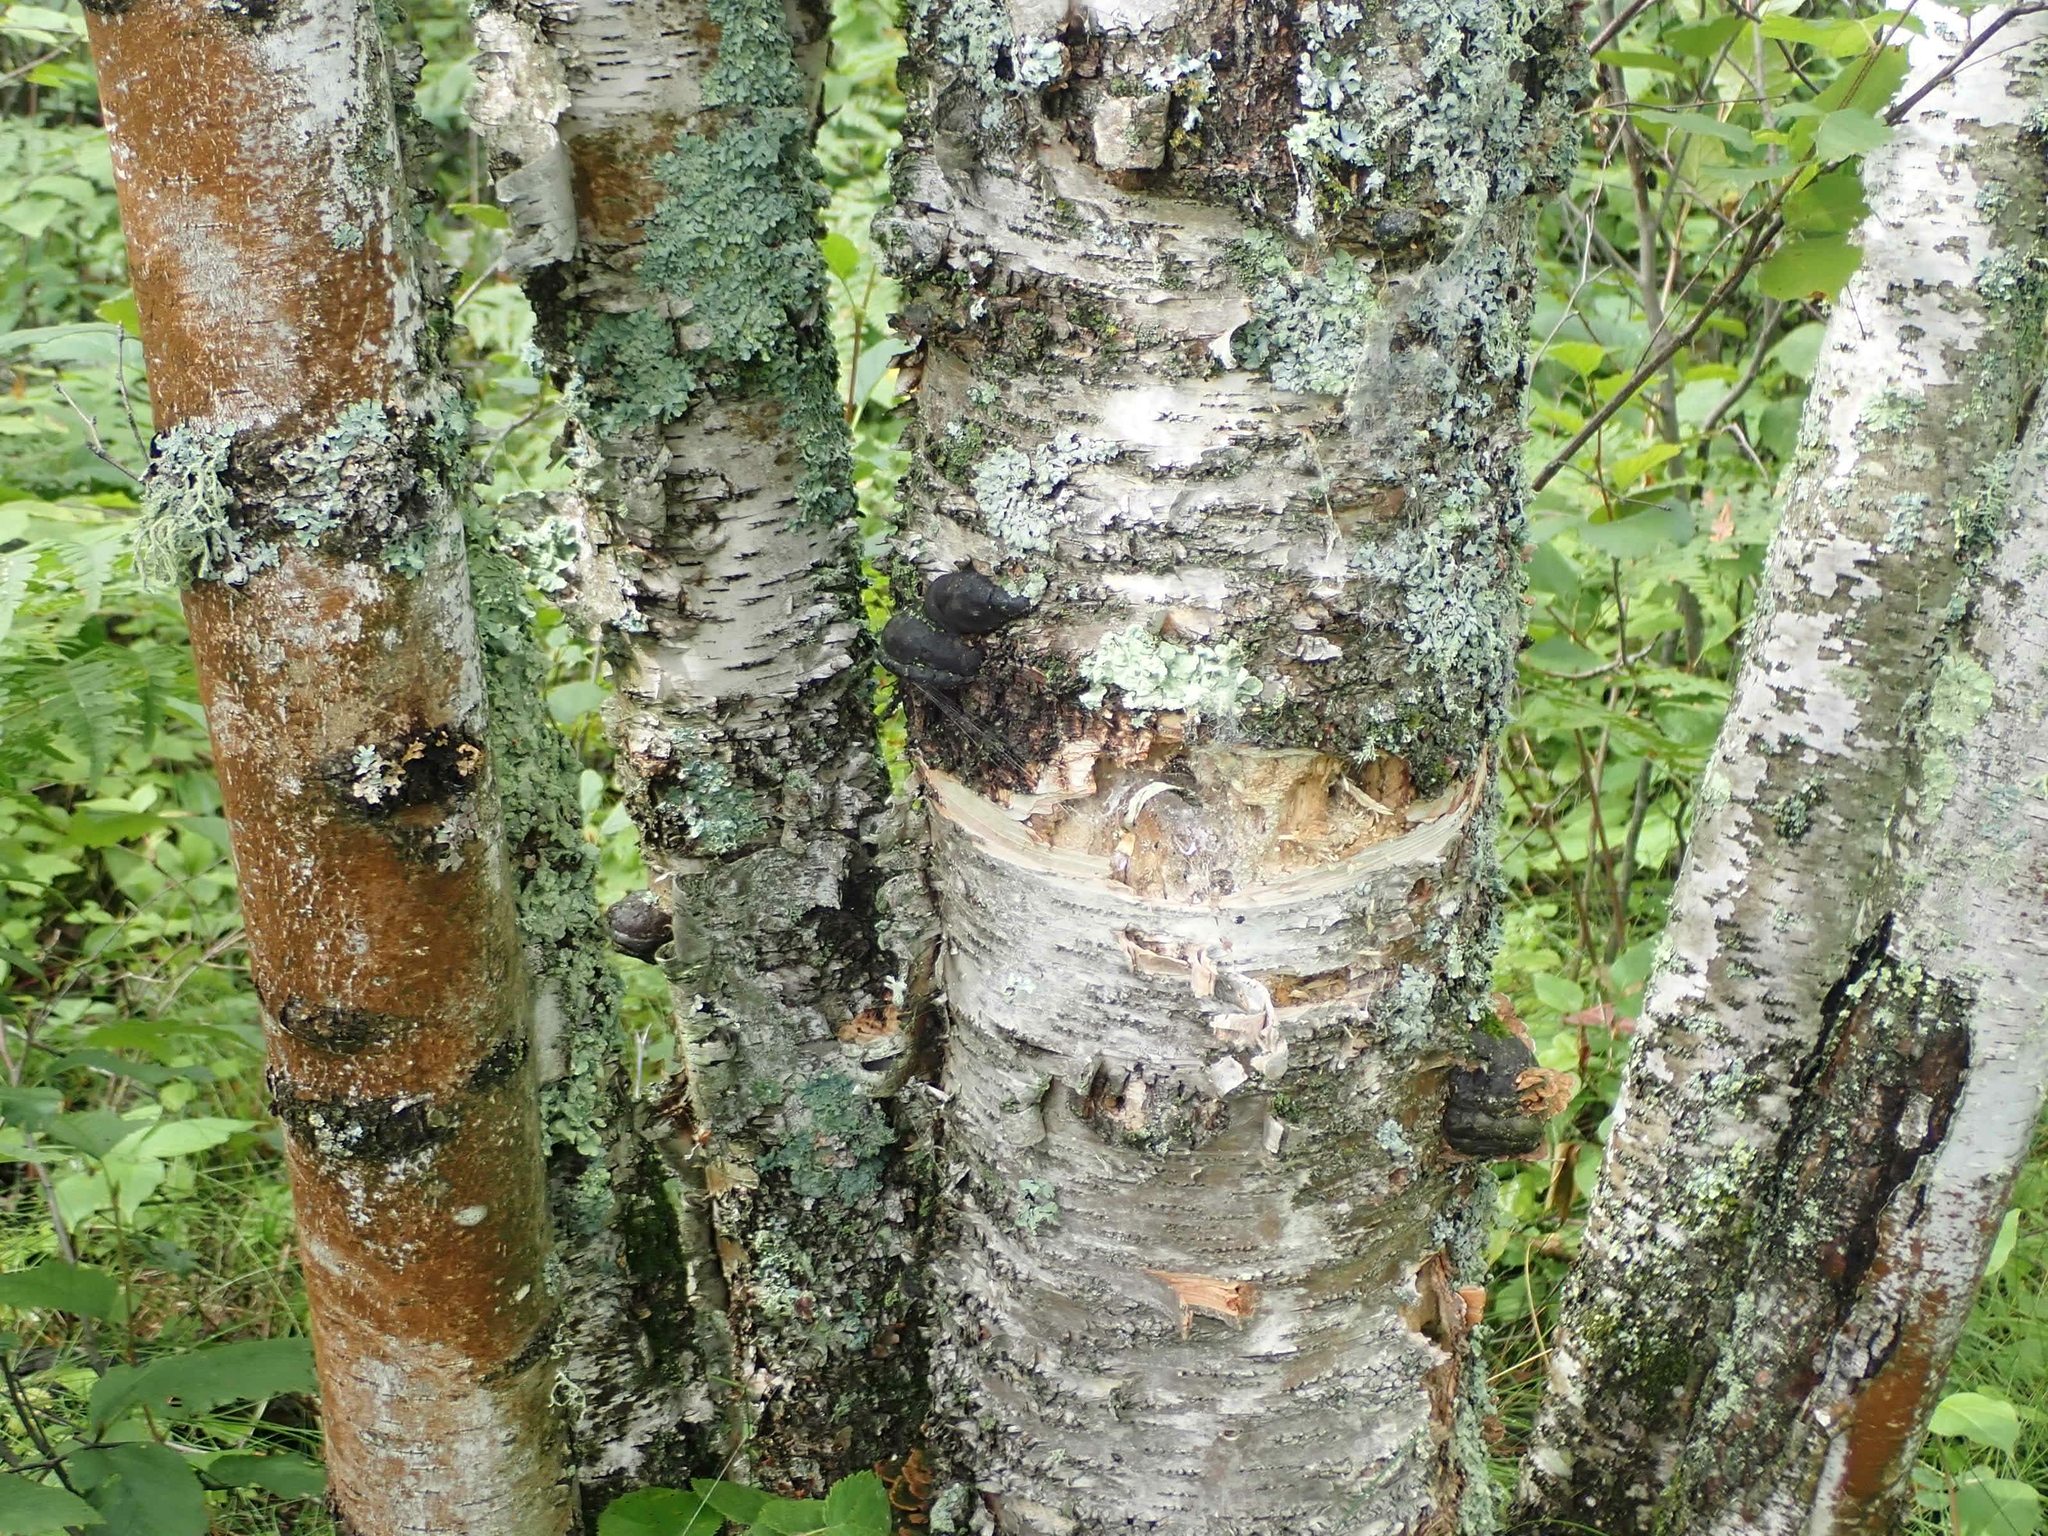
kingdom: Plantae
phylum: Tracheophyta
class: Magnoliopsida
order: Fagales
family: Betulaceae
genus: Betula
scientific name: Betula papyrifera
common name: Paper birch
